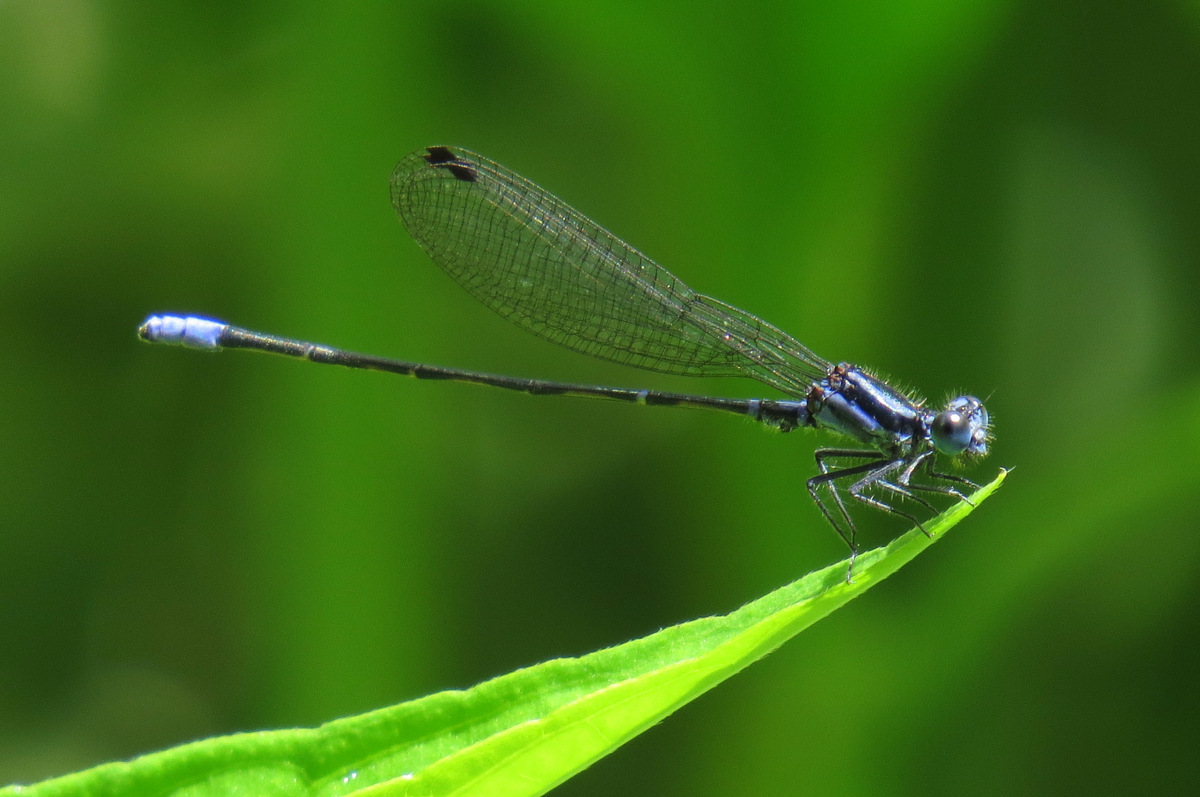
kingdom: Animalia
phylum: Arthropoda
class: Insecta
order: Odonata
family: Coenagrionidae
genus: Argia
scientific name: Argia pulla
